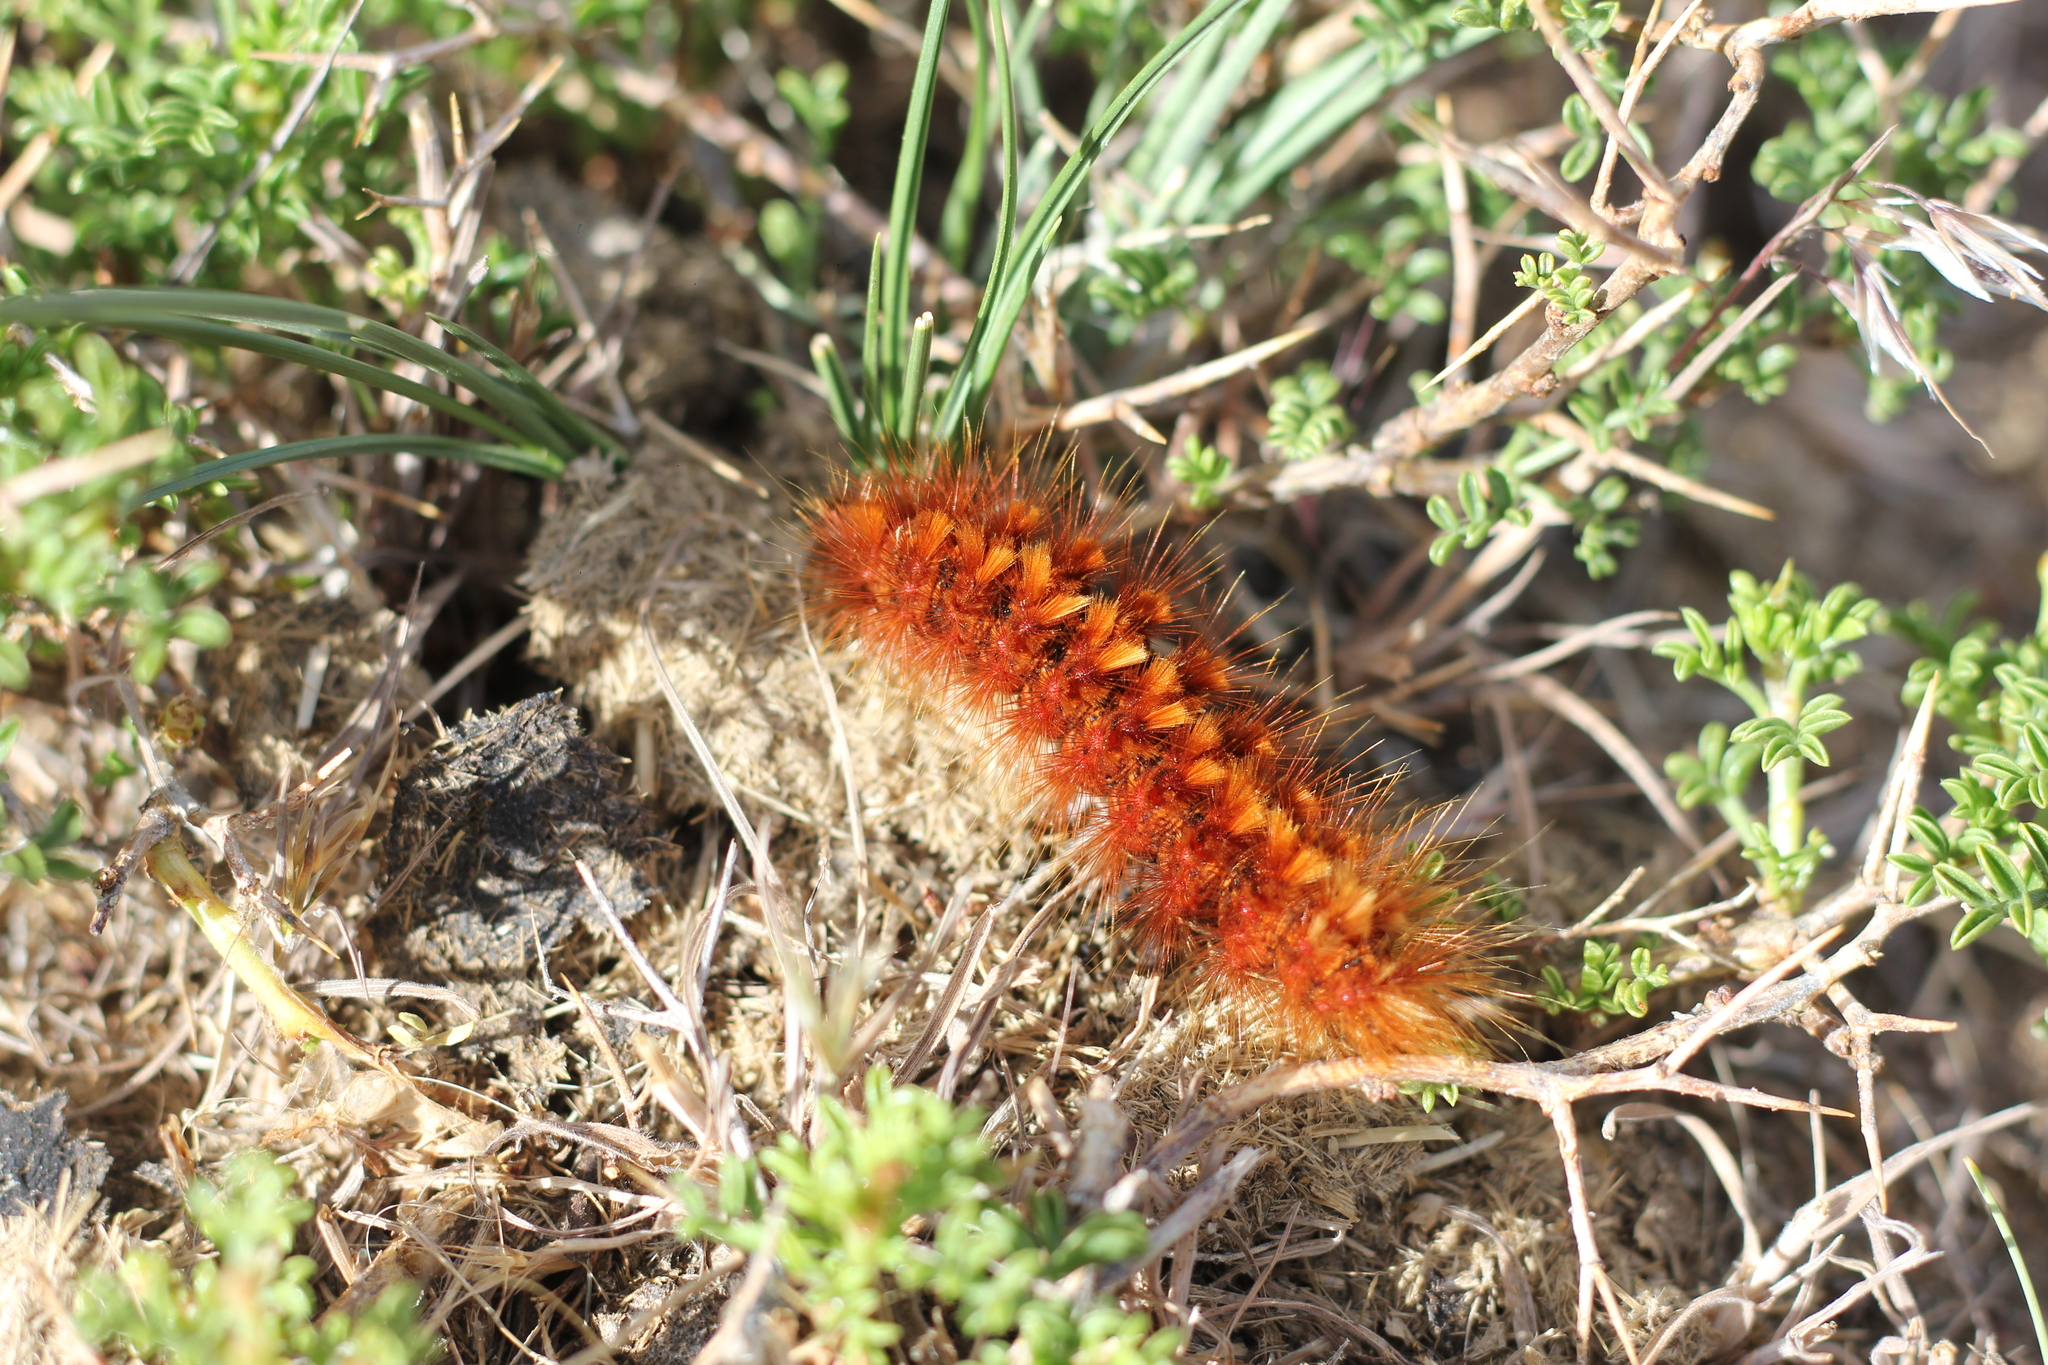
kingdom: Animalia
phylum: Arthropoda
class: Insecta
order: Lepidoptera
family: Erebidae
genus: Paracles
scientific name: Paracles severa
